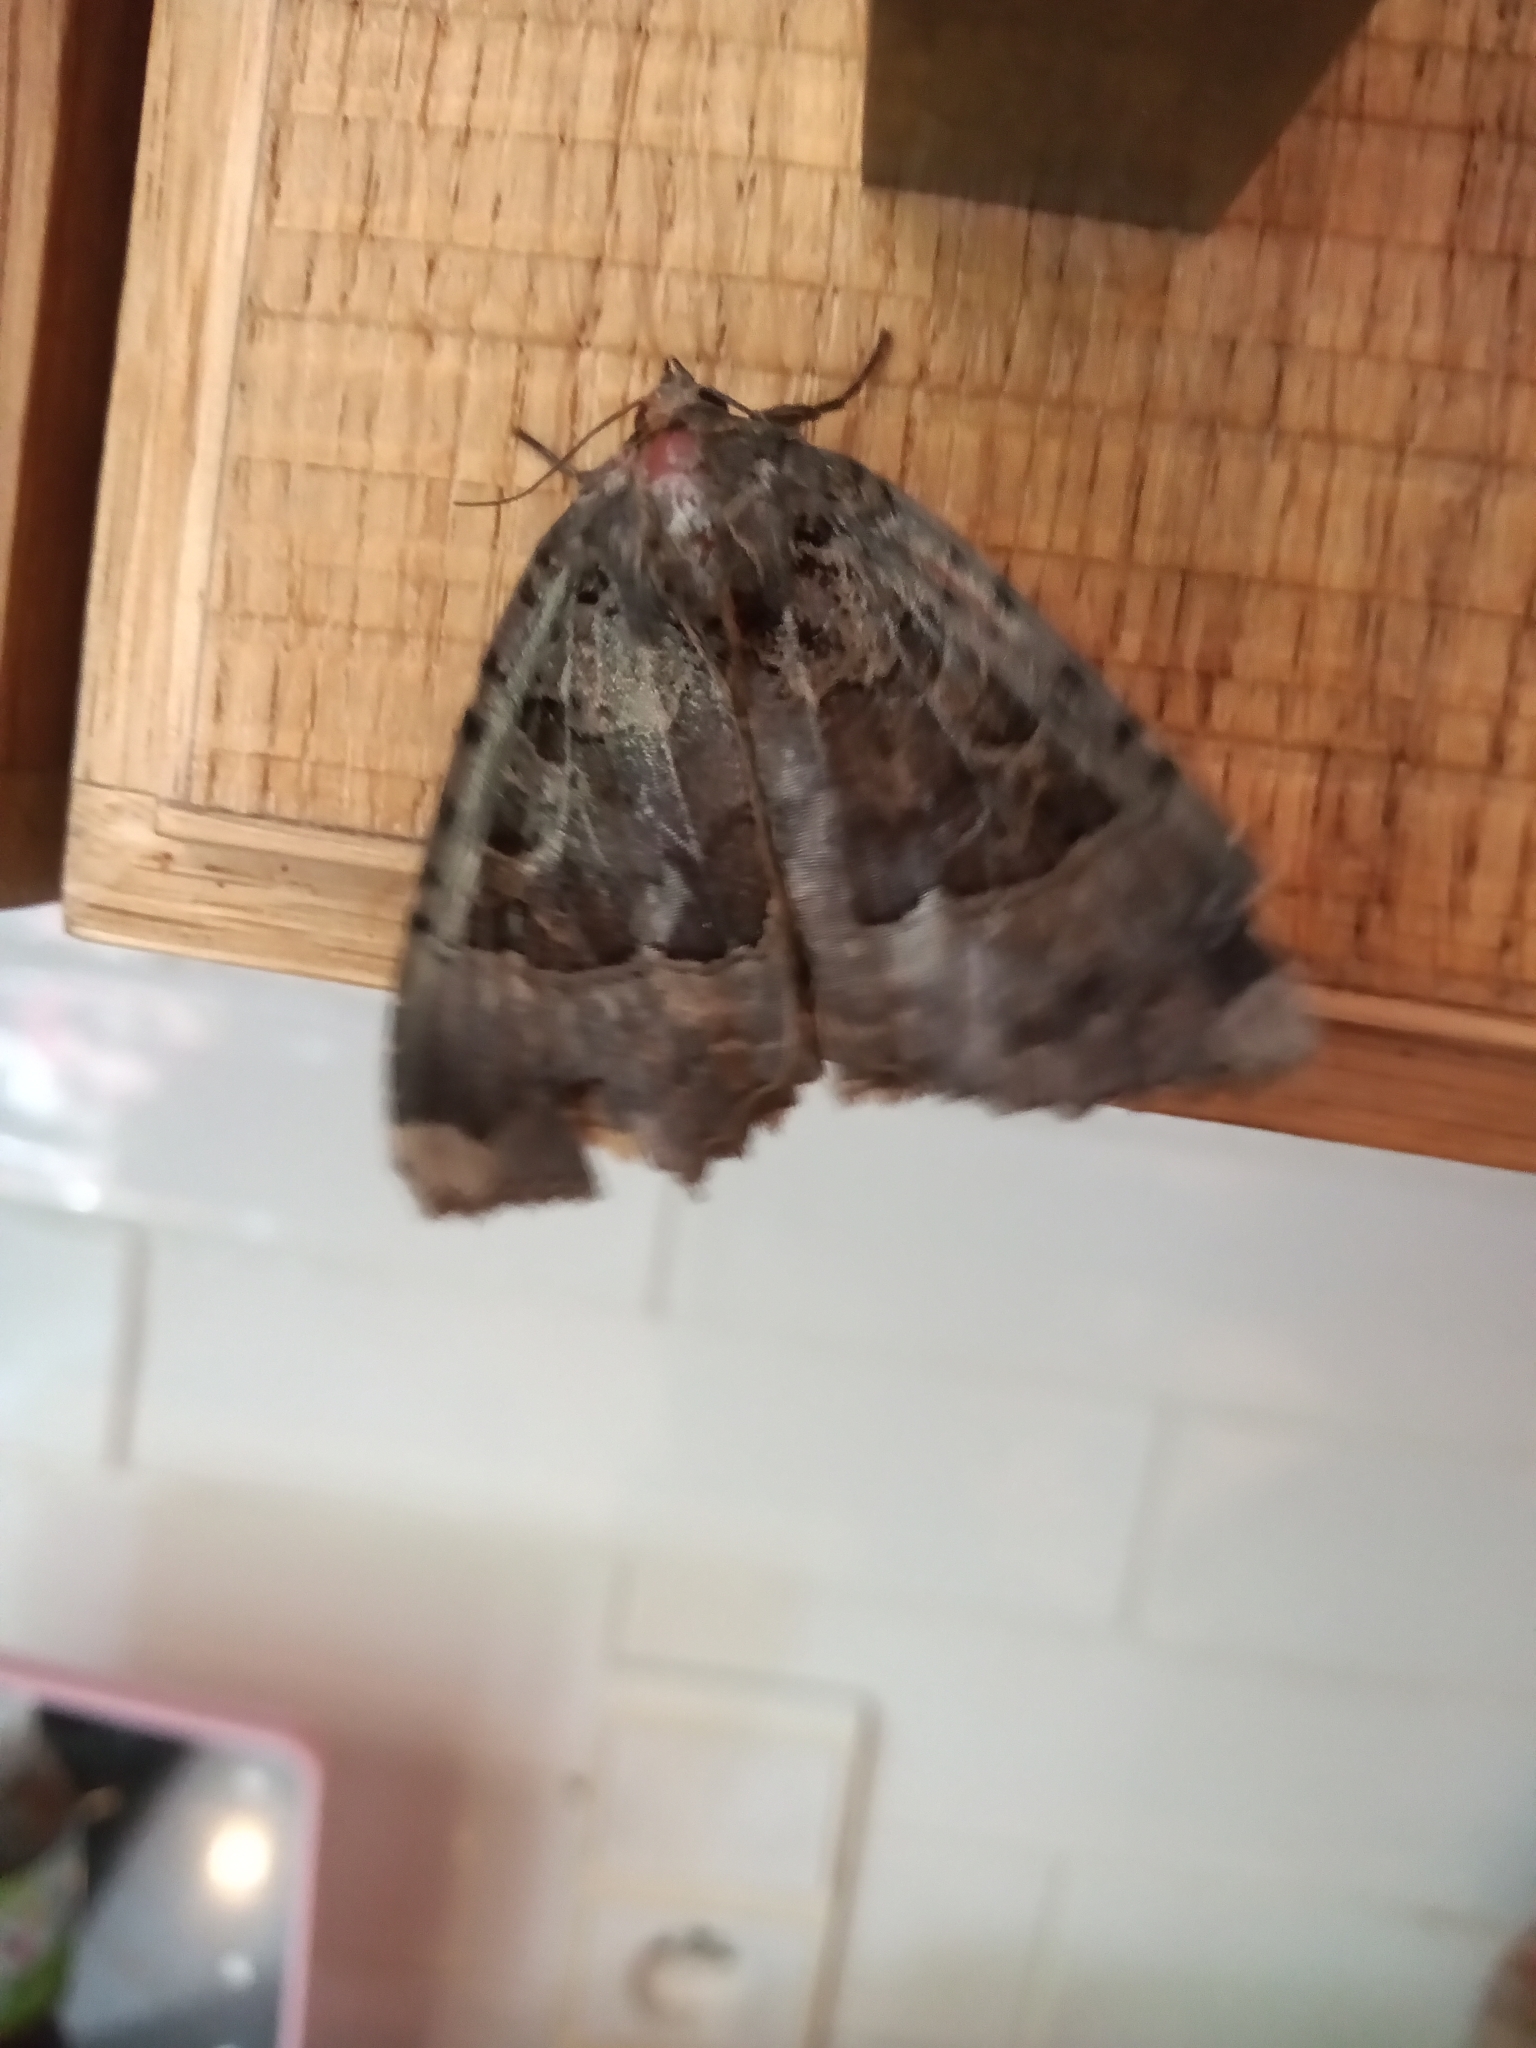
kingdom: Animalia
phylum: Arthropoda
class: Insecta
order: Lepidoptera
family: Noctuidae
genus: Mormo
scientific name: Mormo maura
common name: Old lady
